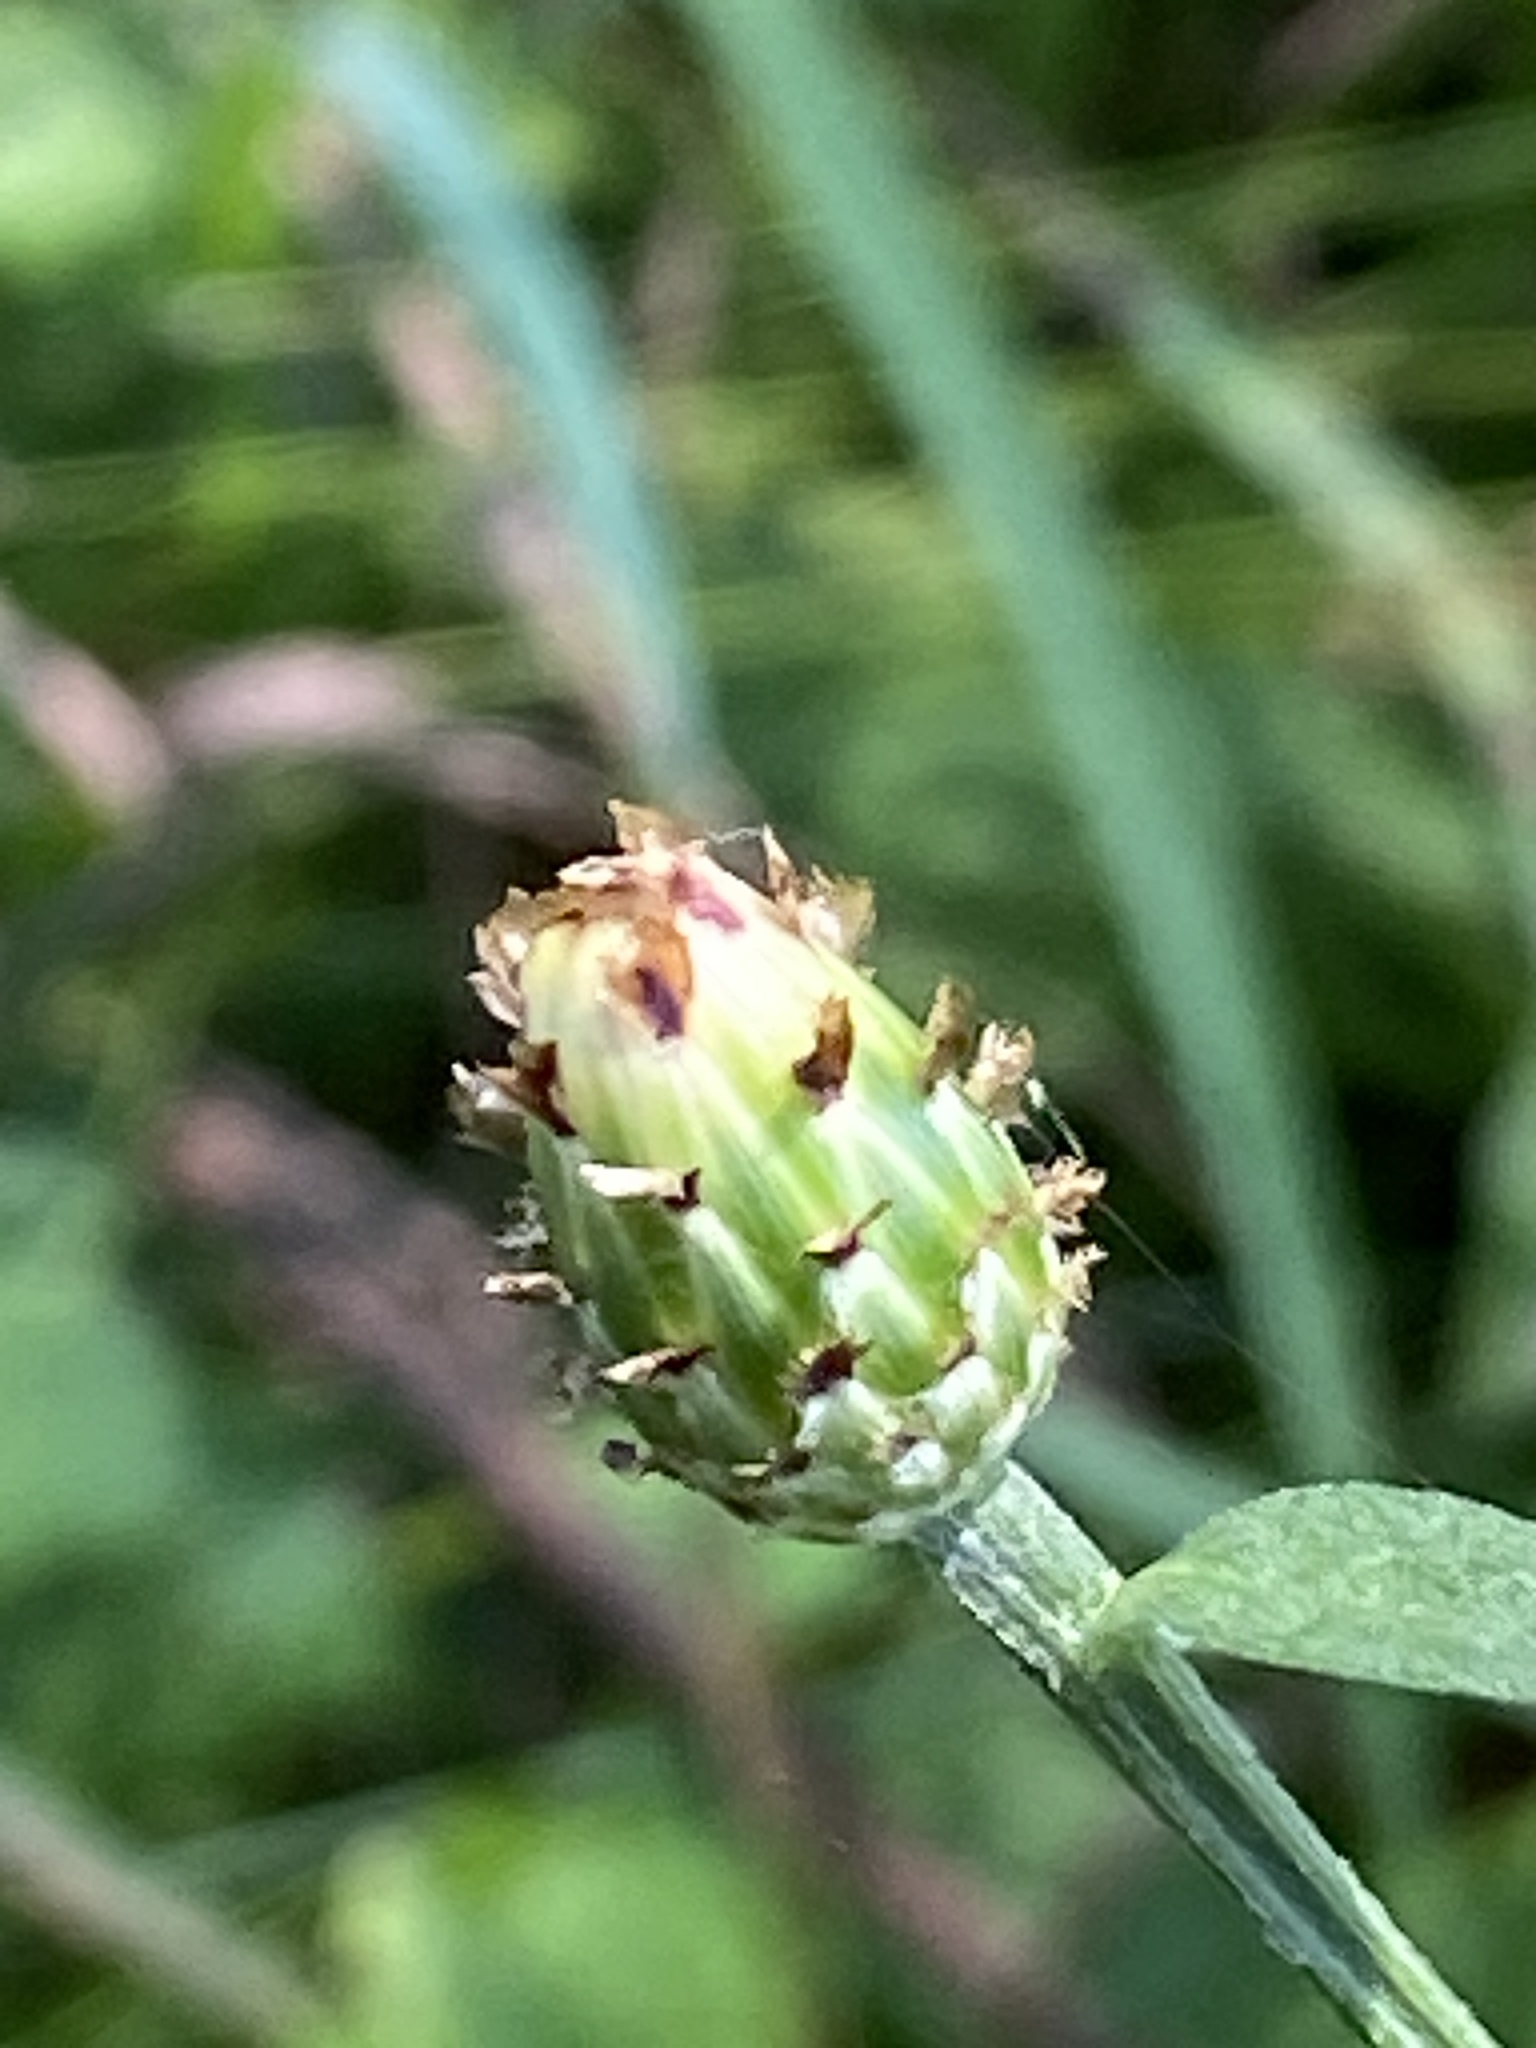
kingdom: Plantae
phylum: Tracheophyta
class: Magnoliopsida
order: Asterales
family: Asteraceae
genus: Centaurea
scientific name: Centaurea nigrescens
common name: Tyrol knapweed
